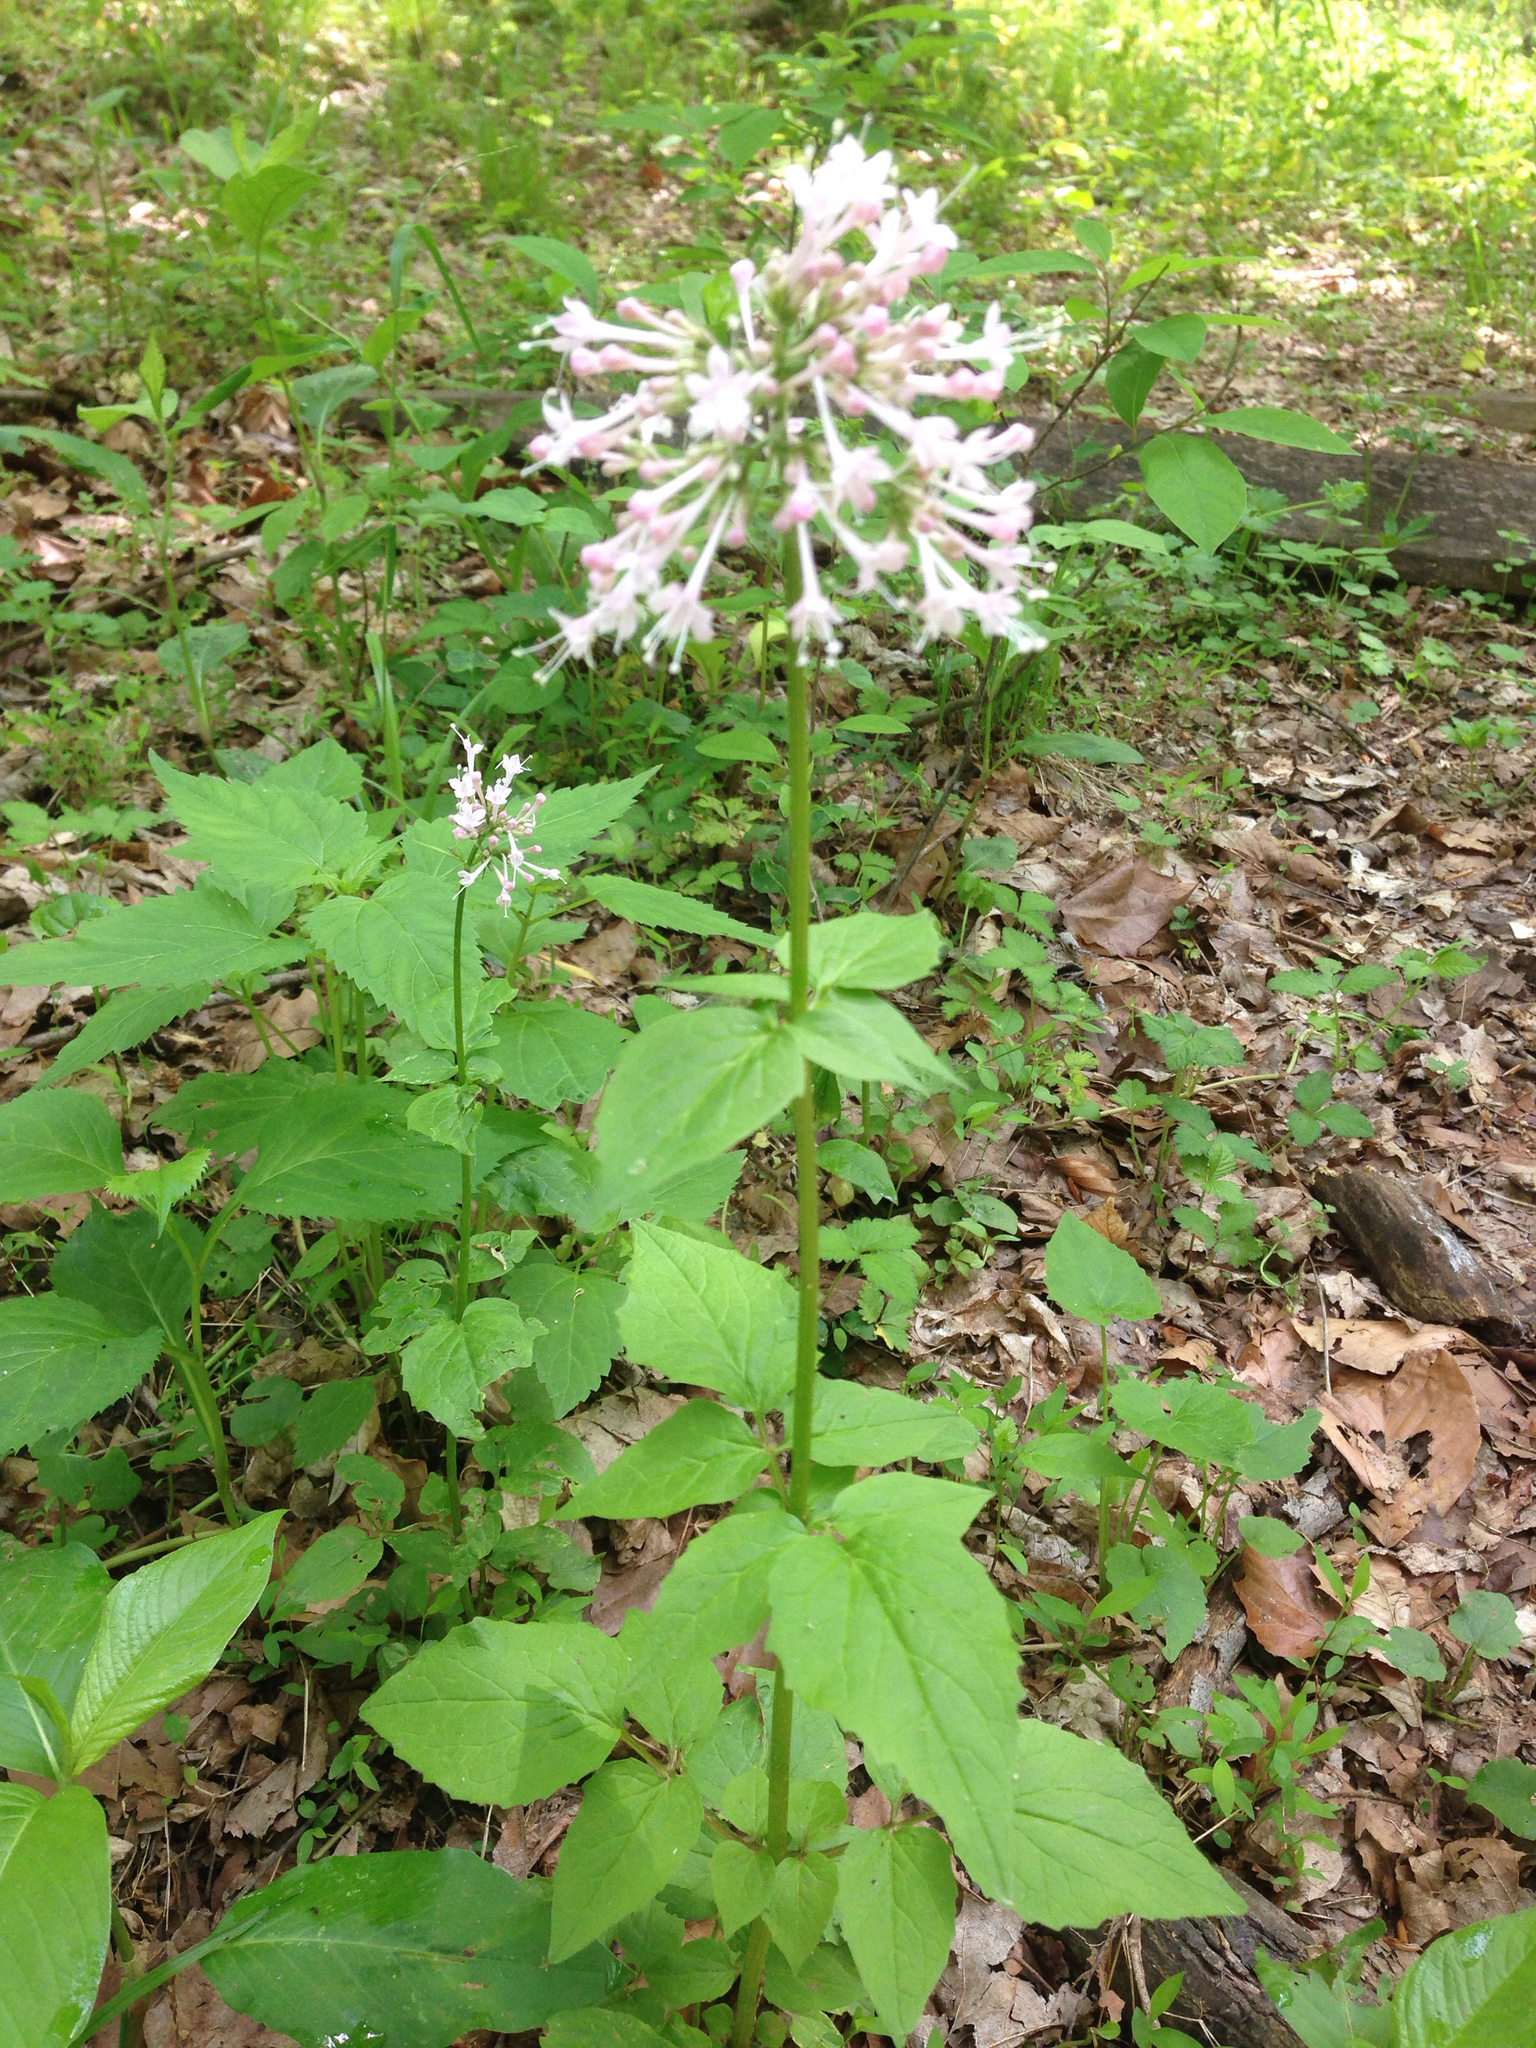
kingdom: Plantae
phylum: Tracheophyta
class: Magnoliopsida
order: Dipsacales
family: Caprifoliaceae
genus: Valeriana
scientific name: Valeriana pauciflora
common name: Long-tube valeriana
